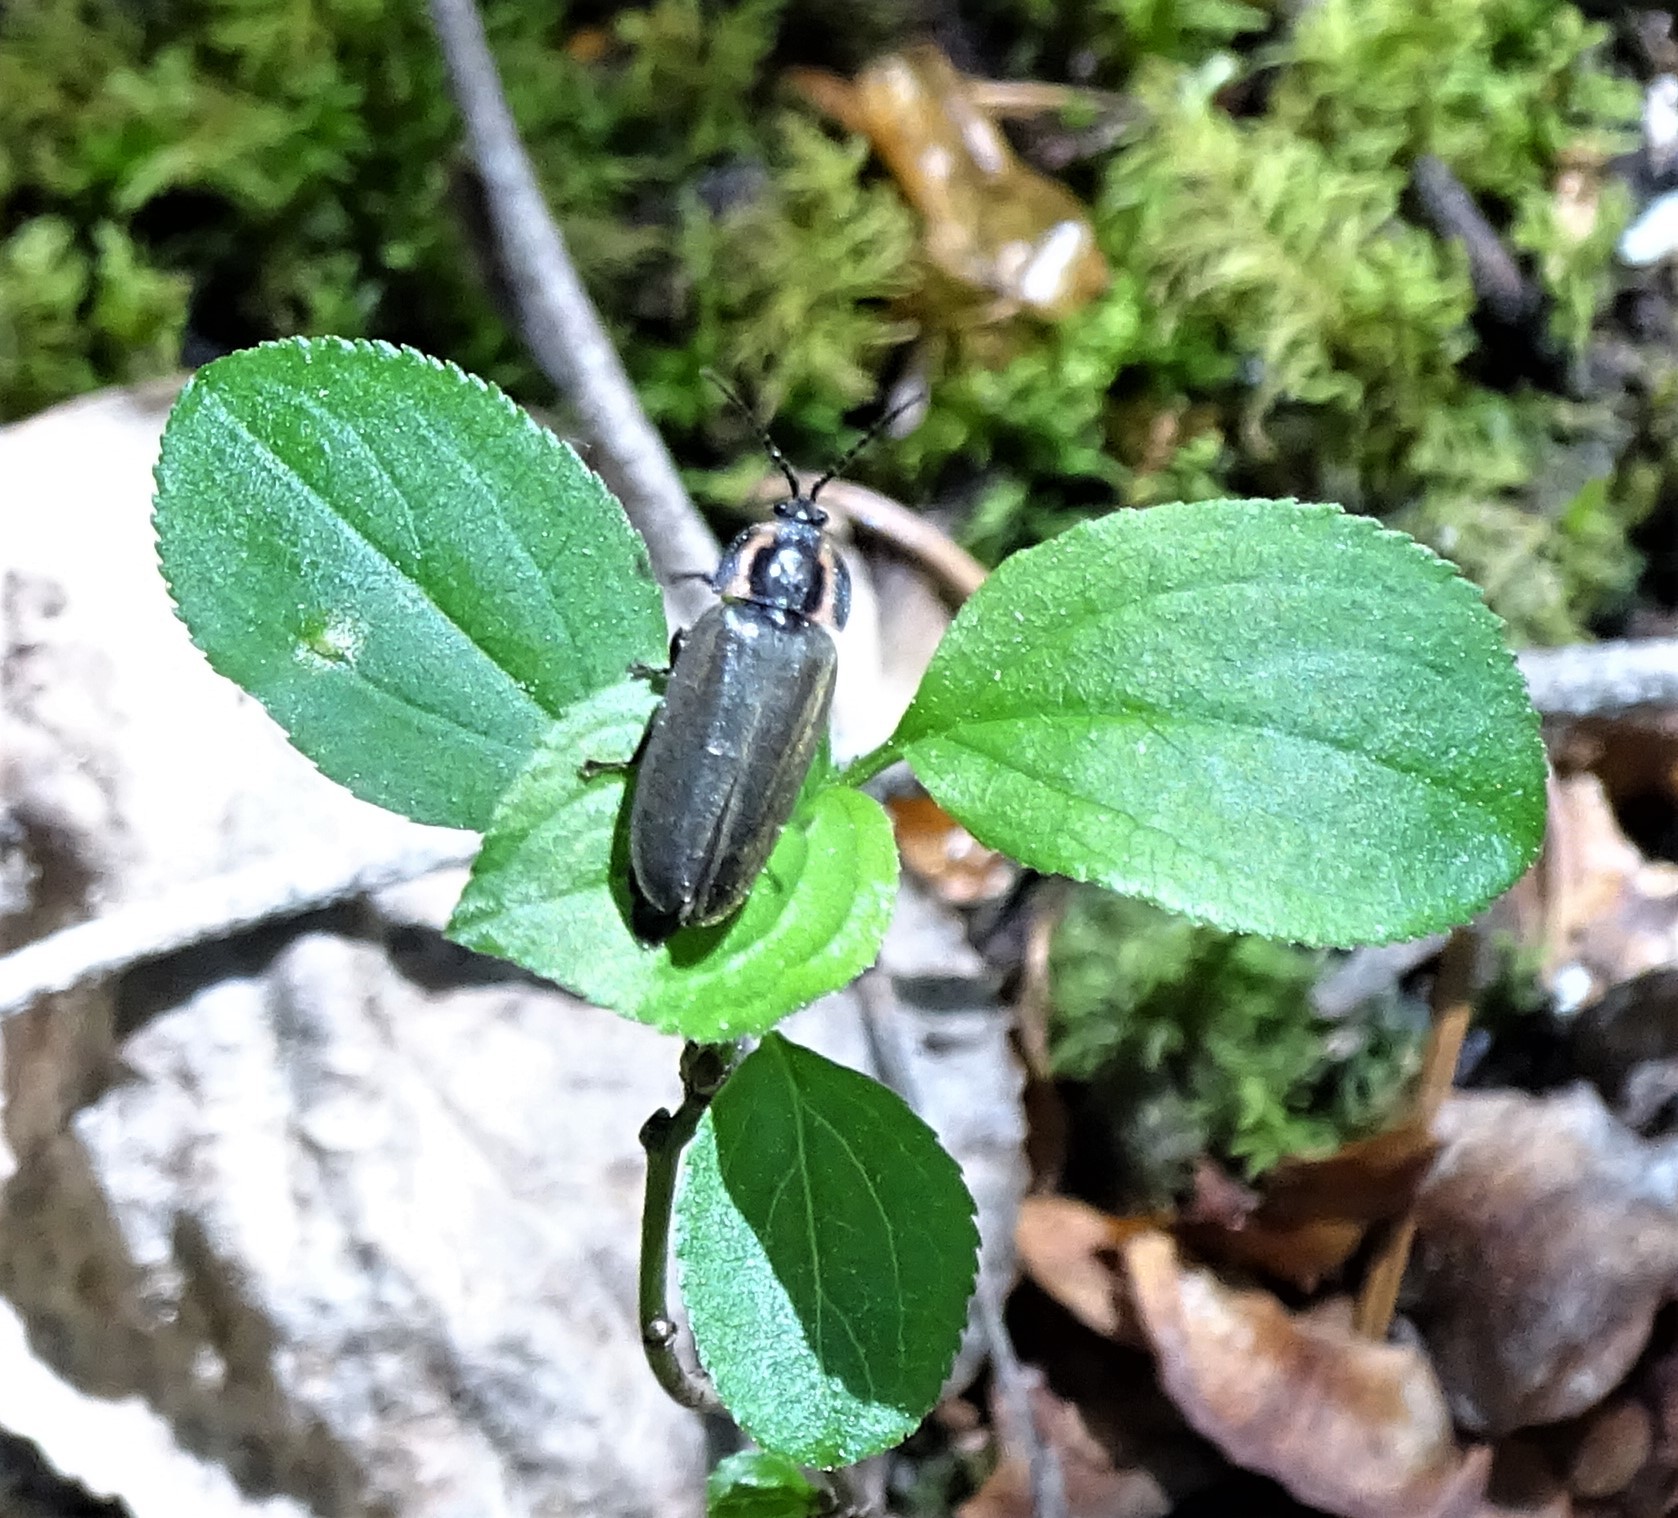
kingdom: Animalia
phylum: Arthropoda
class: Insecta
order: Coleoptera
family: Lampyridae
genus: Photinus
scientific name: Photinus corrusca
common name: Winter firefly
